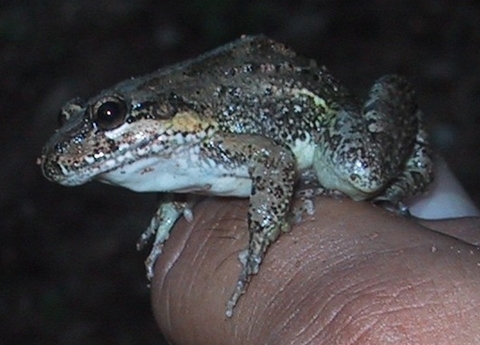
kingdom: Animalia
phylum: Chordata
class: Amphibia
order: Anura
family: Leptodactylidae
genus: Leptodactylus
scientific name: Leptodactylus melanonotus
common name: Fringe-toed foamfrog
